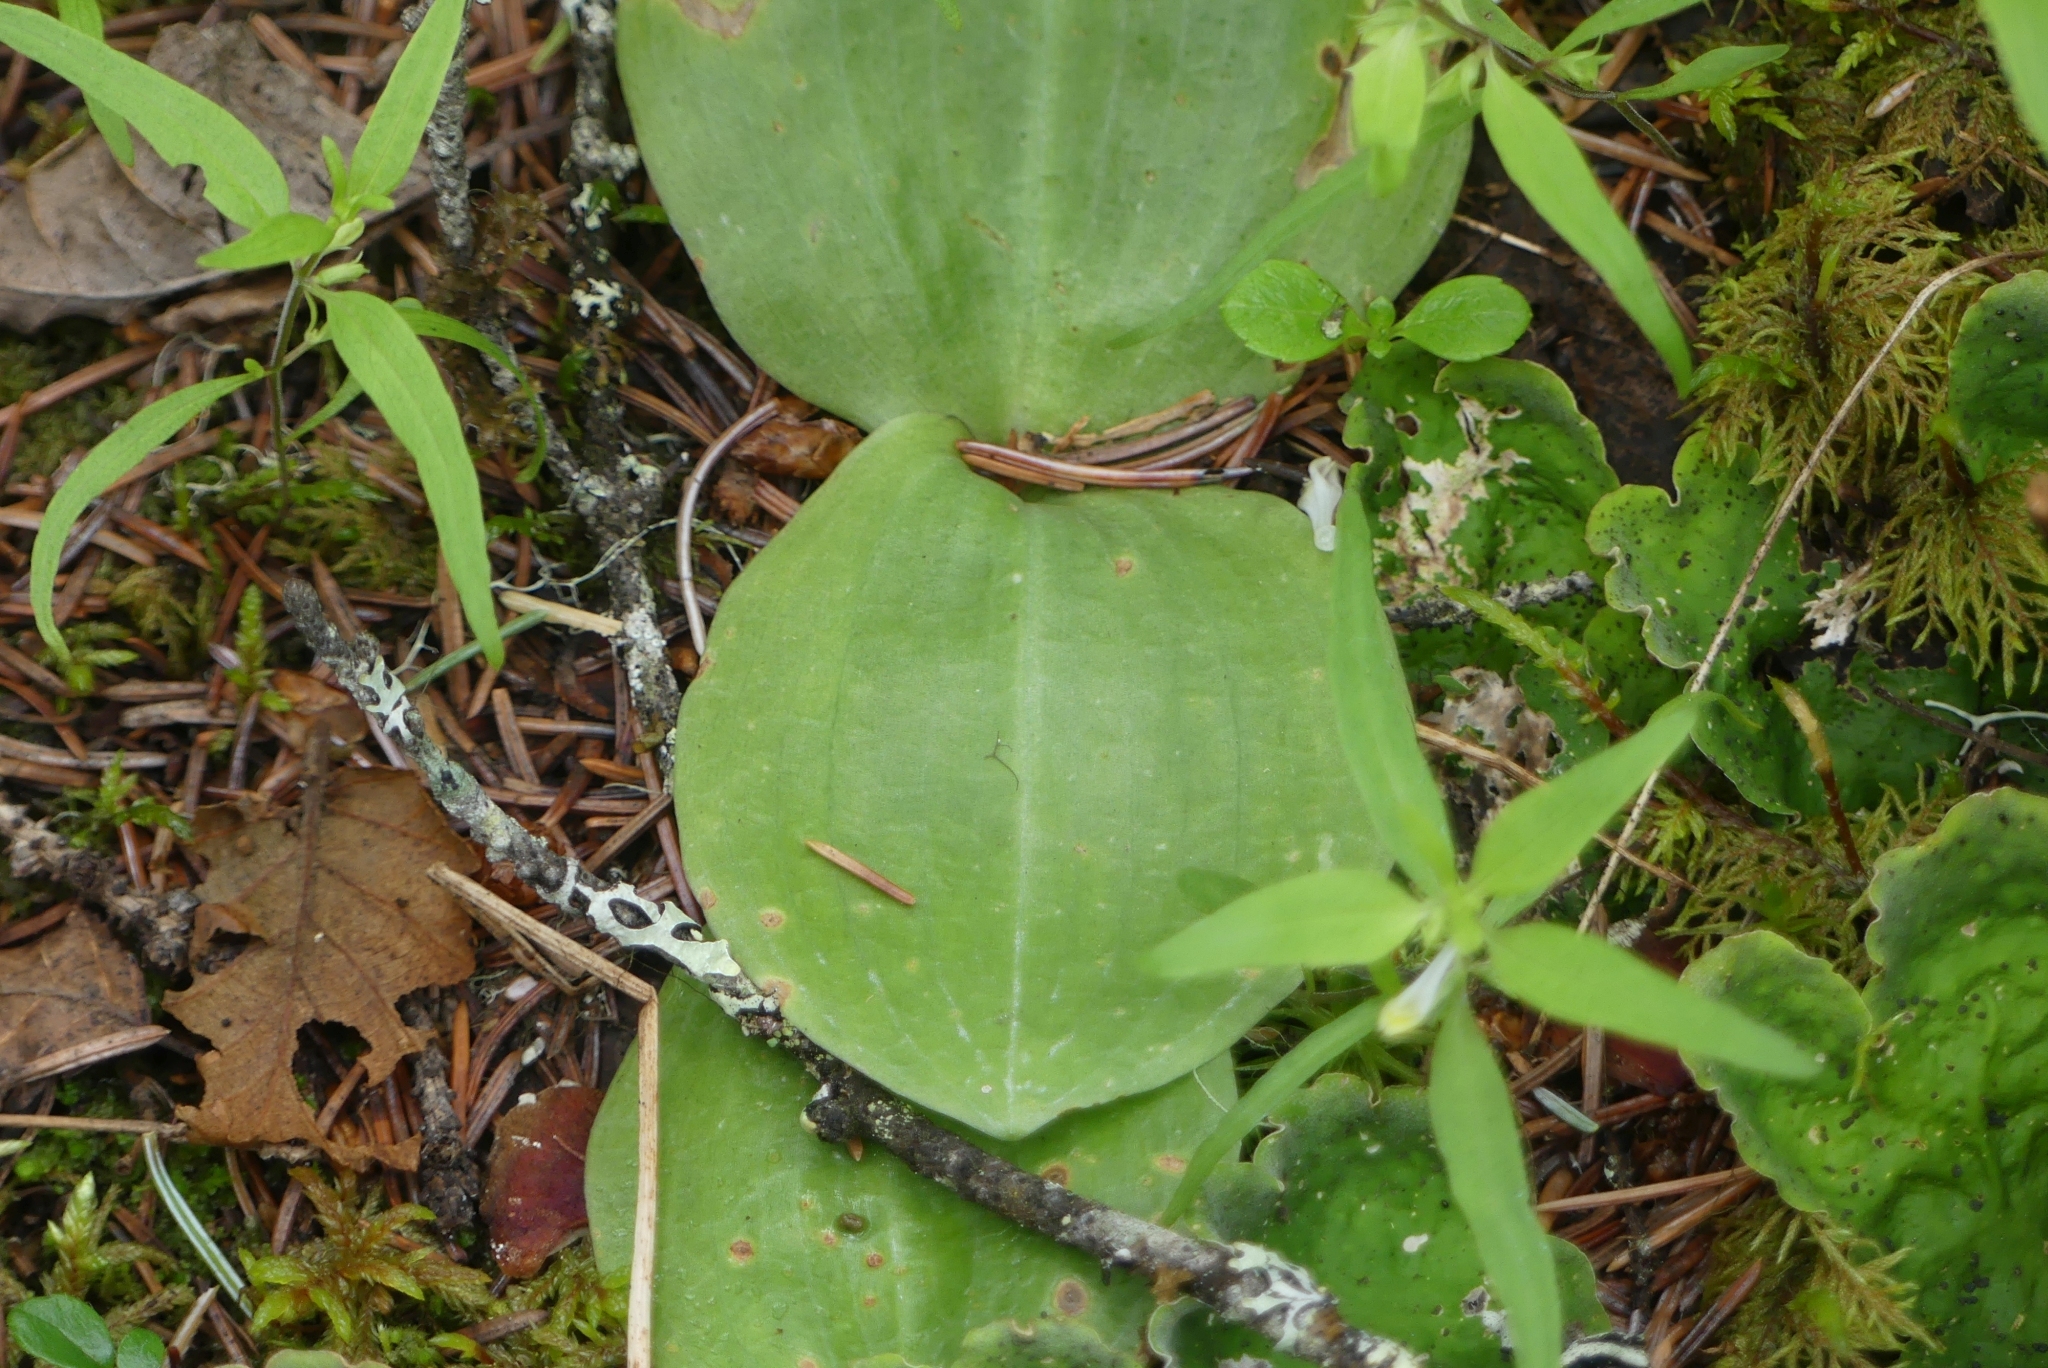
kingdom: Plantae
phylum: Tracheophyta
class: Liliopsida
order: Asparagales
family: Orchidaceae
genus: Platanthera
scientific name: Platanthera orbiculata
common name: Large round-leaved orchid
